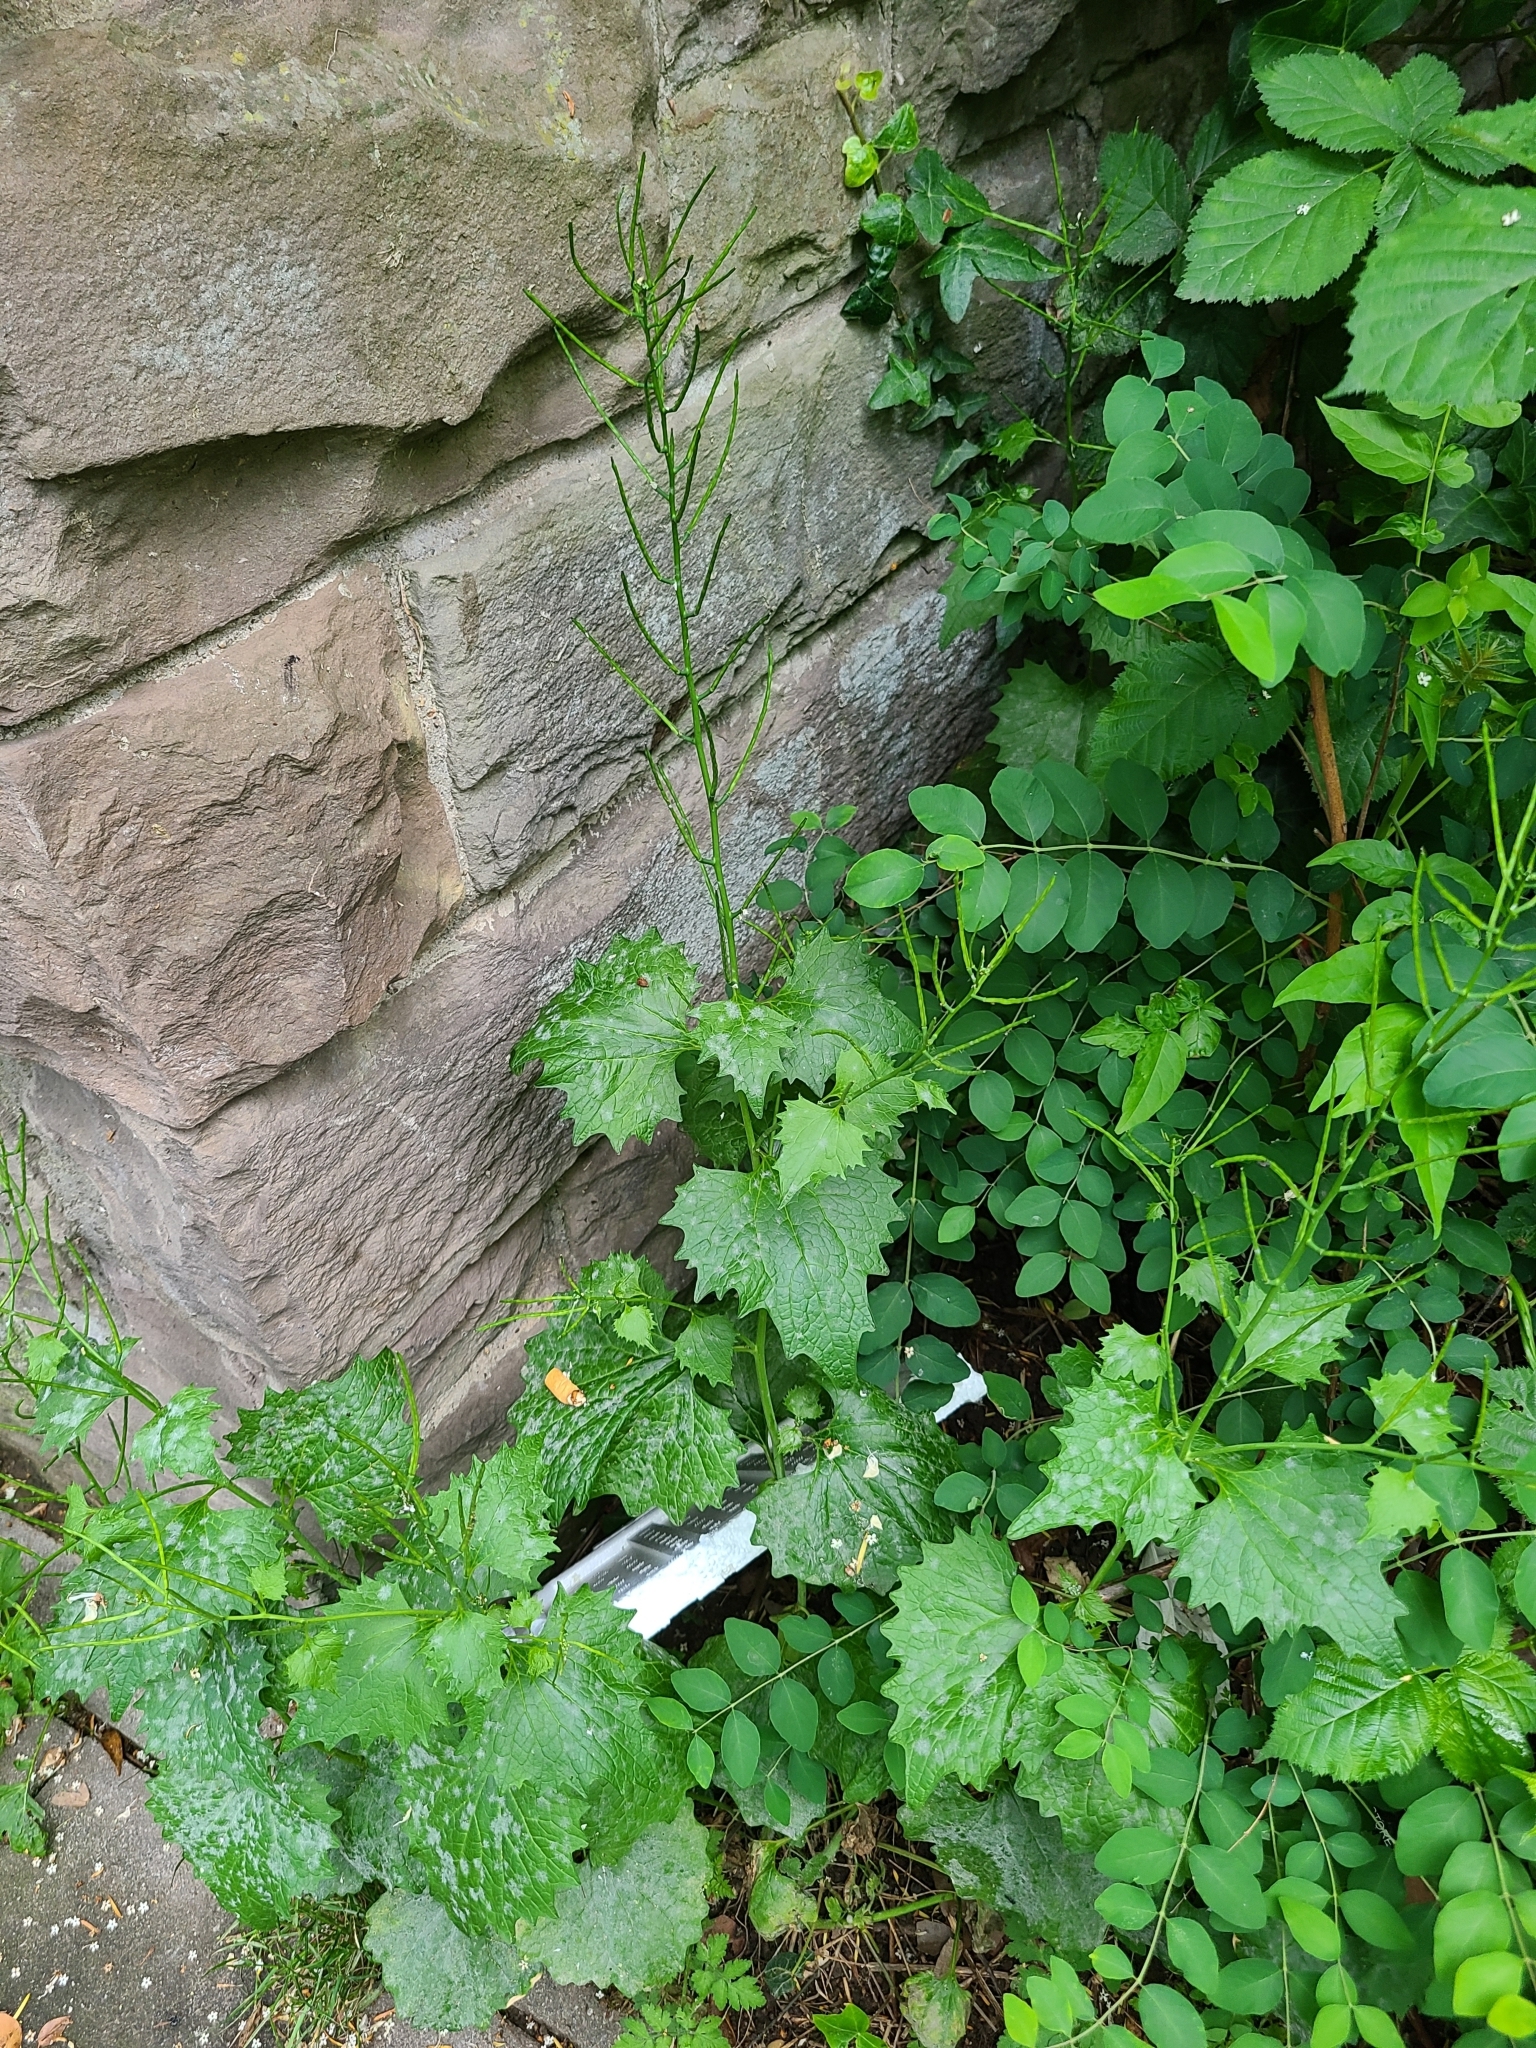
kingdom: Plantae
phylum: Tracheophyta
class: Magnoliopsida
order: Brassicales
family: Brassicaceae
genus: Alliaria
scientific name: Alliaria petiolata
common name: Garlic mustard
